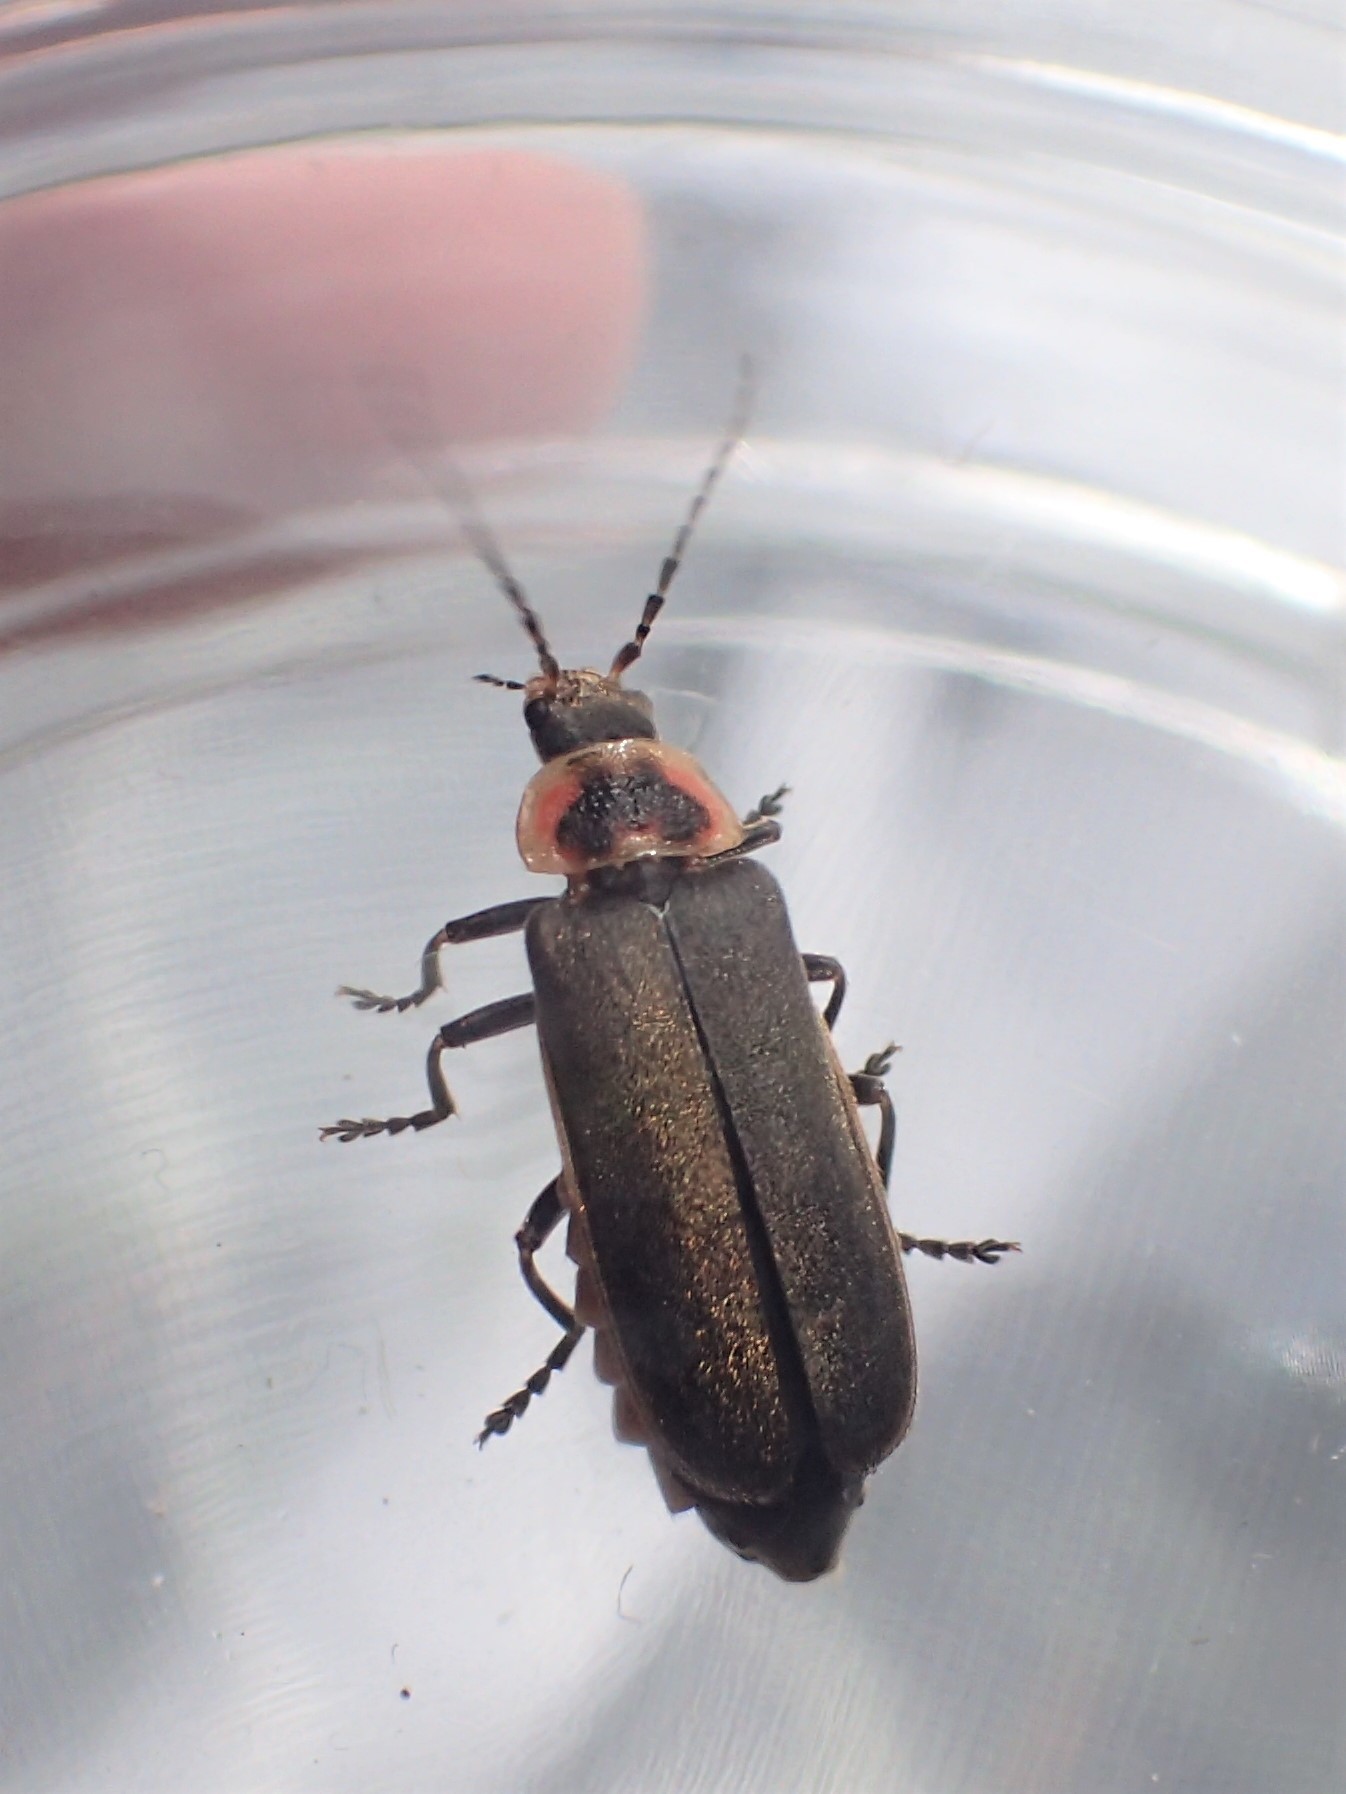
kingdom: Animalia
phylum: Arthropoda
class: Insecta
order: Coleoptera
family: Cantharidae
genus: Atalantycha
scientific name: Atalantycha dentigera
